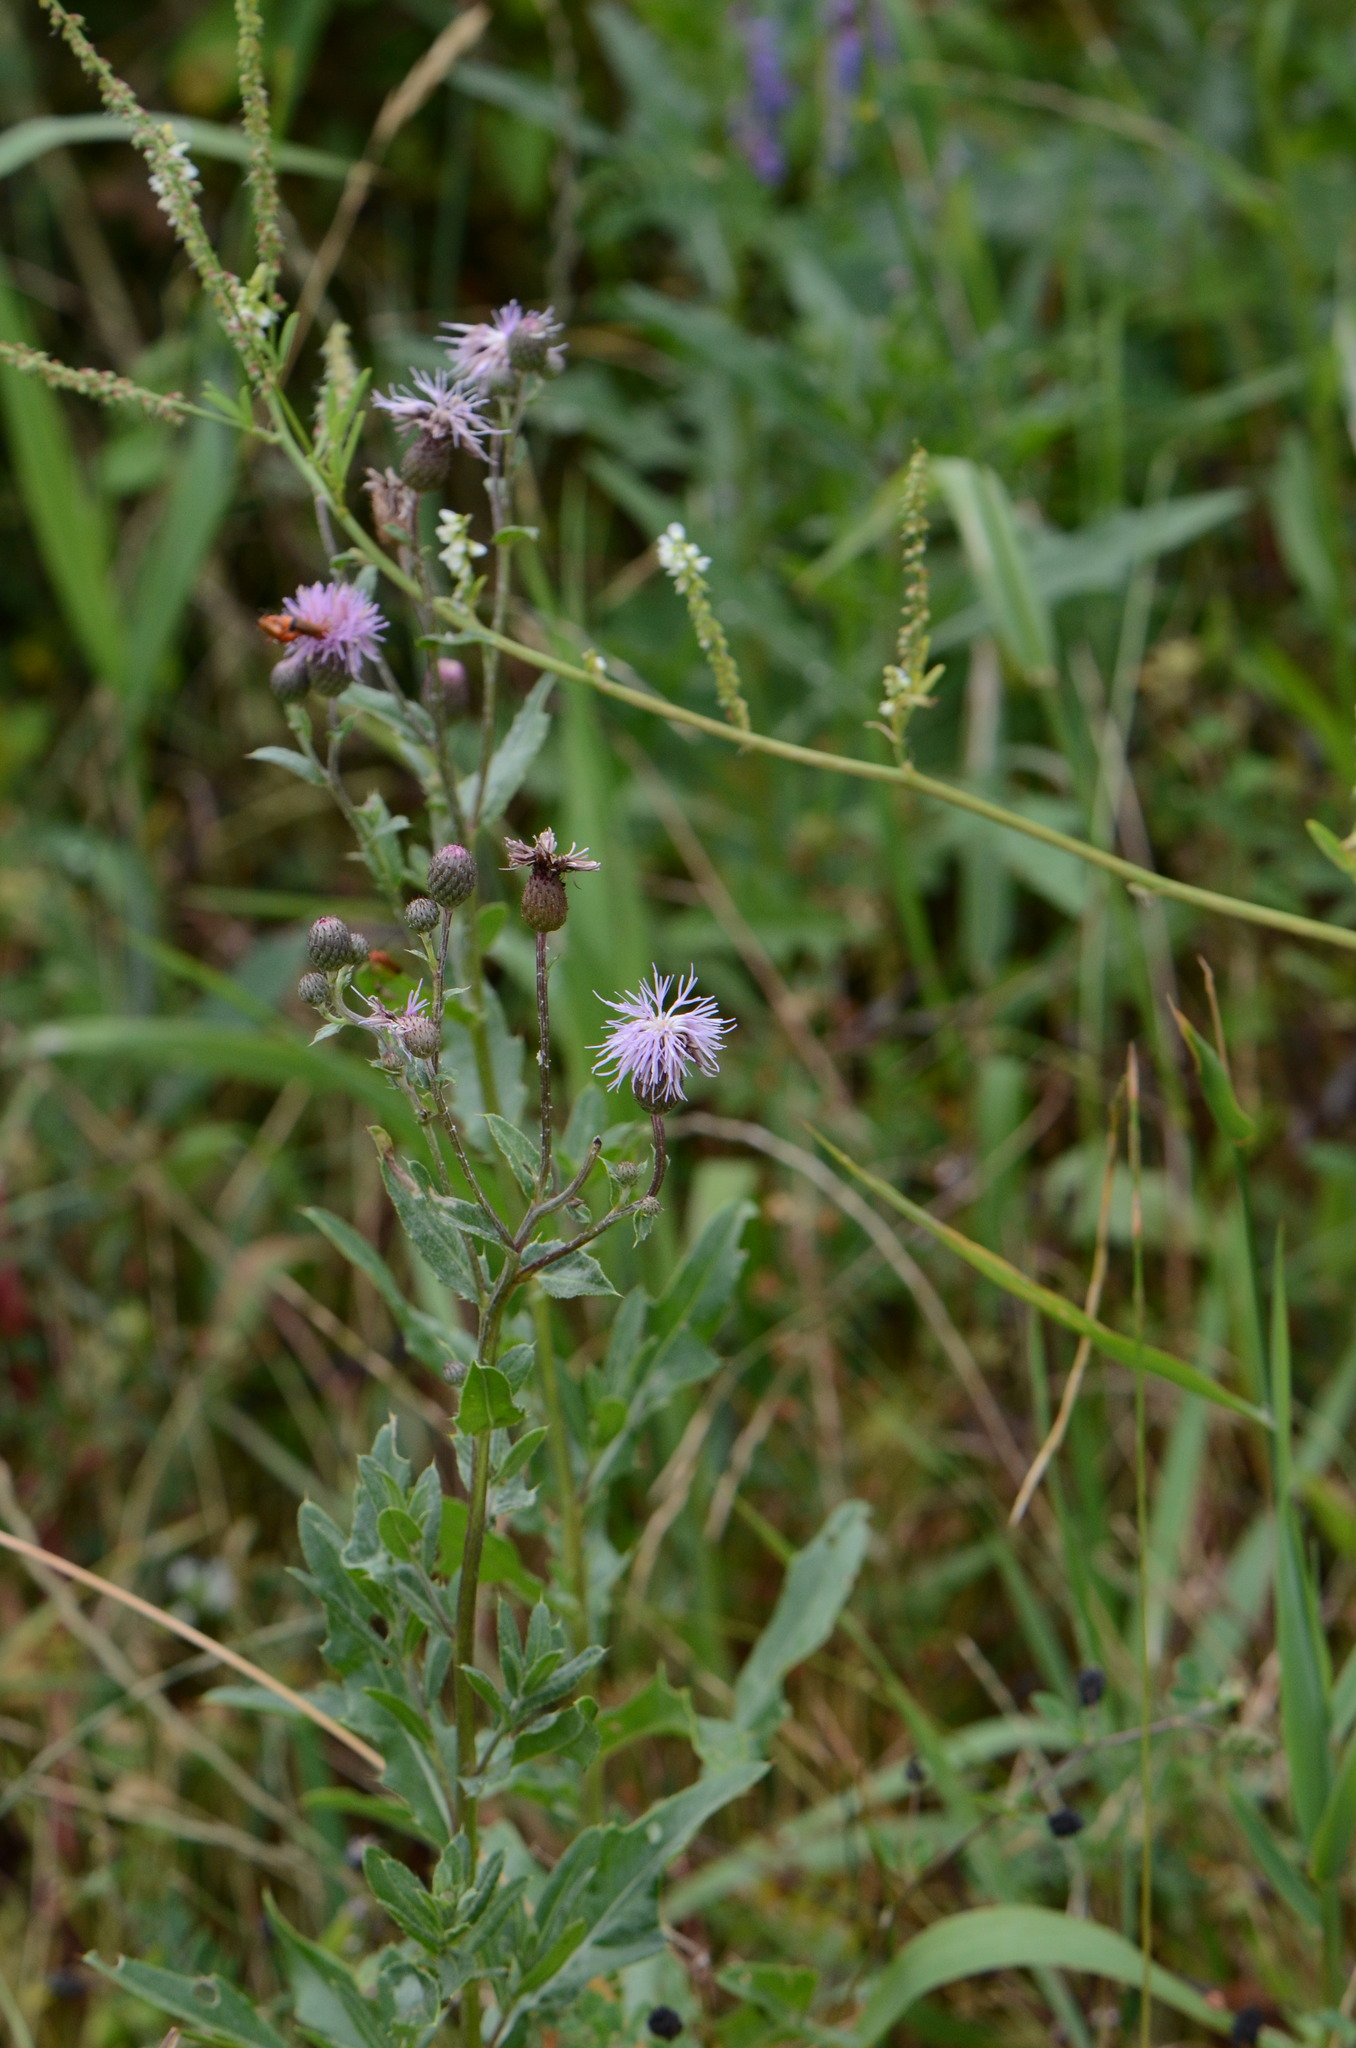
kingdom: Plantae
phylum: Tracheophyta
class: Magnoliopsida
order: Asterales
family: Asteraceae
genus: Cirsium
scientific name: Cirsium arvense
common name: Creeping thistle
